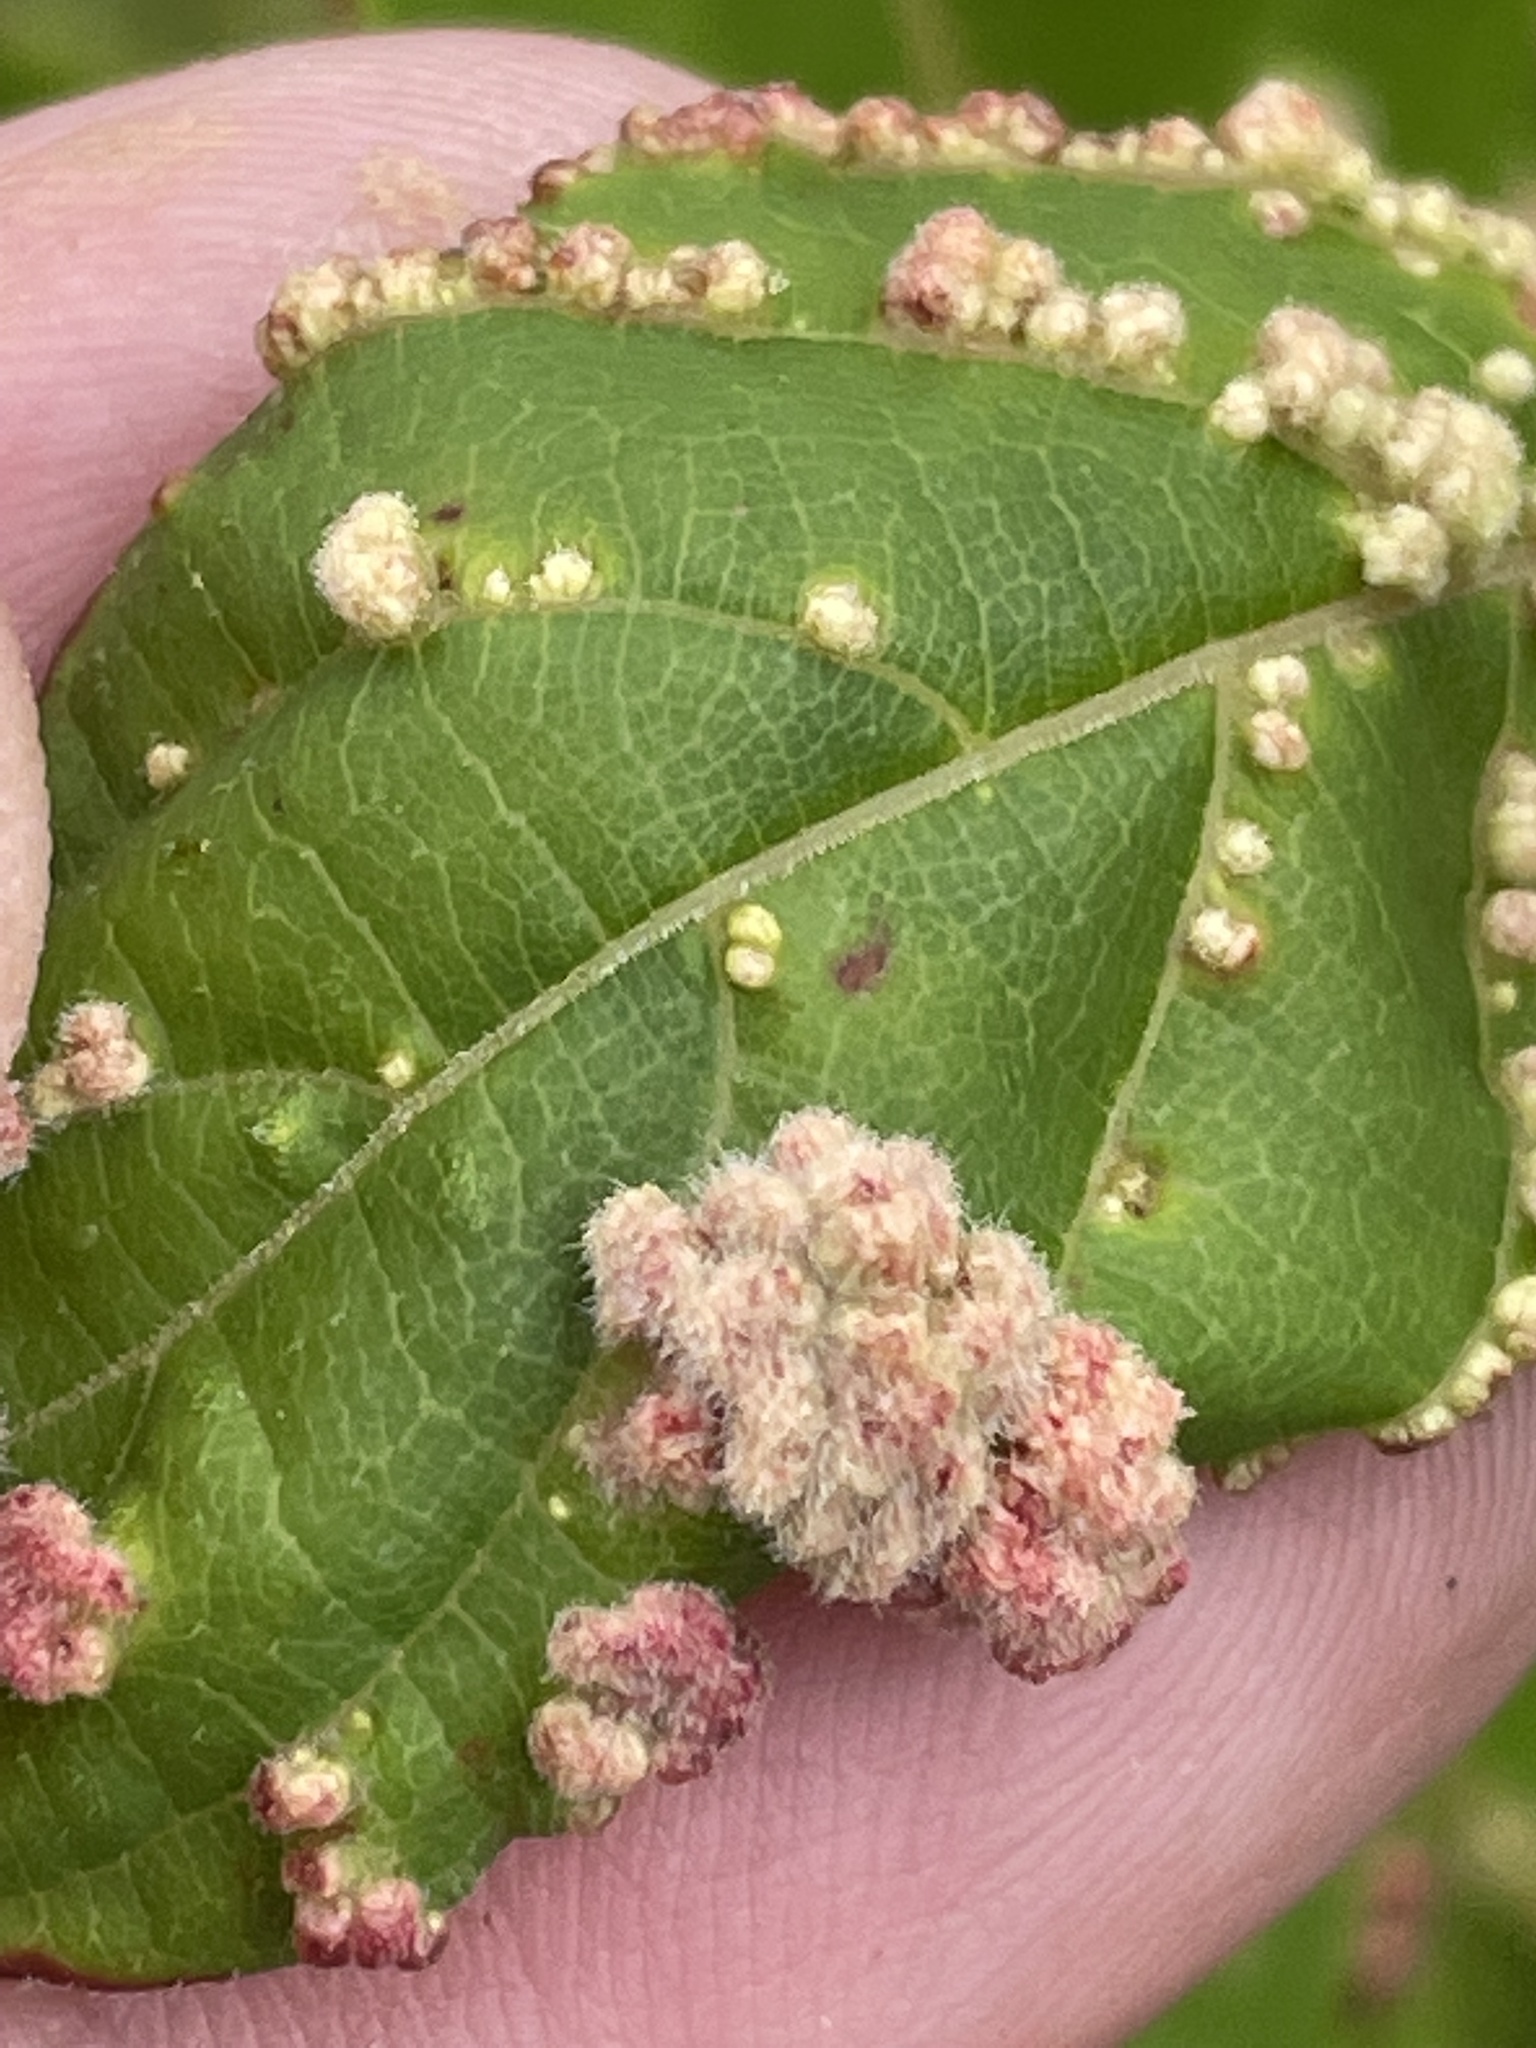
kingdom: Animalia
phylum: Arthropoda
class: Arachnida
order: Trombidiformes
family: Eriophyidae
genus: Aceria
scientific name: Aceria
